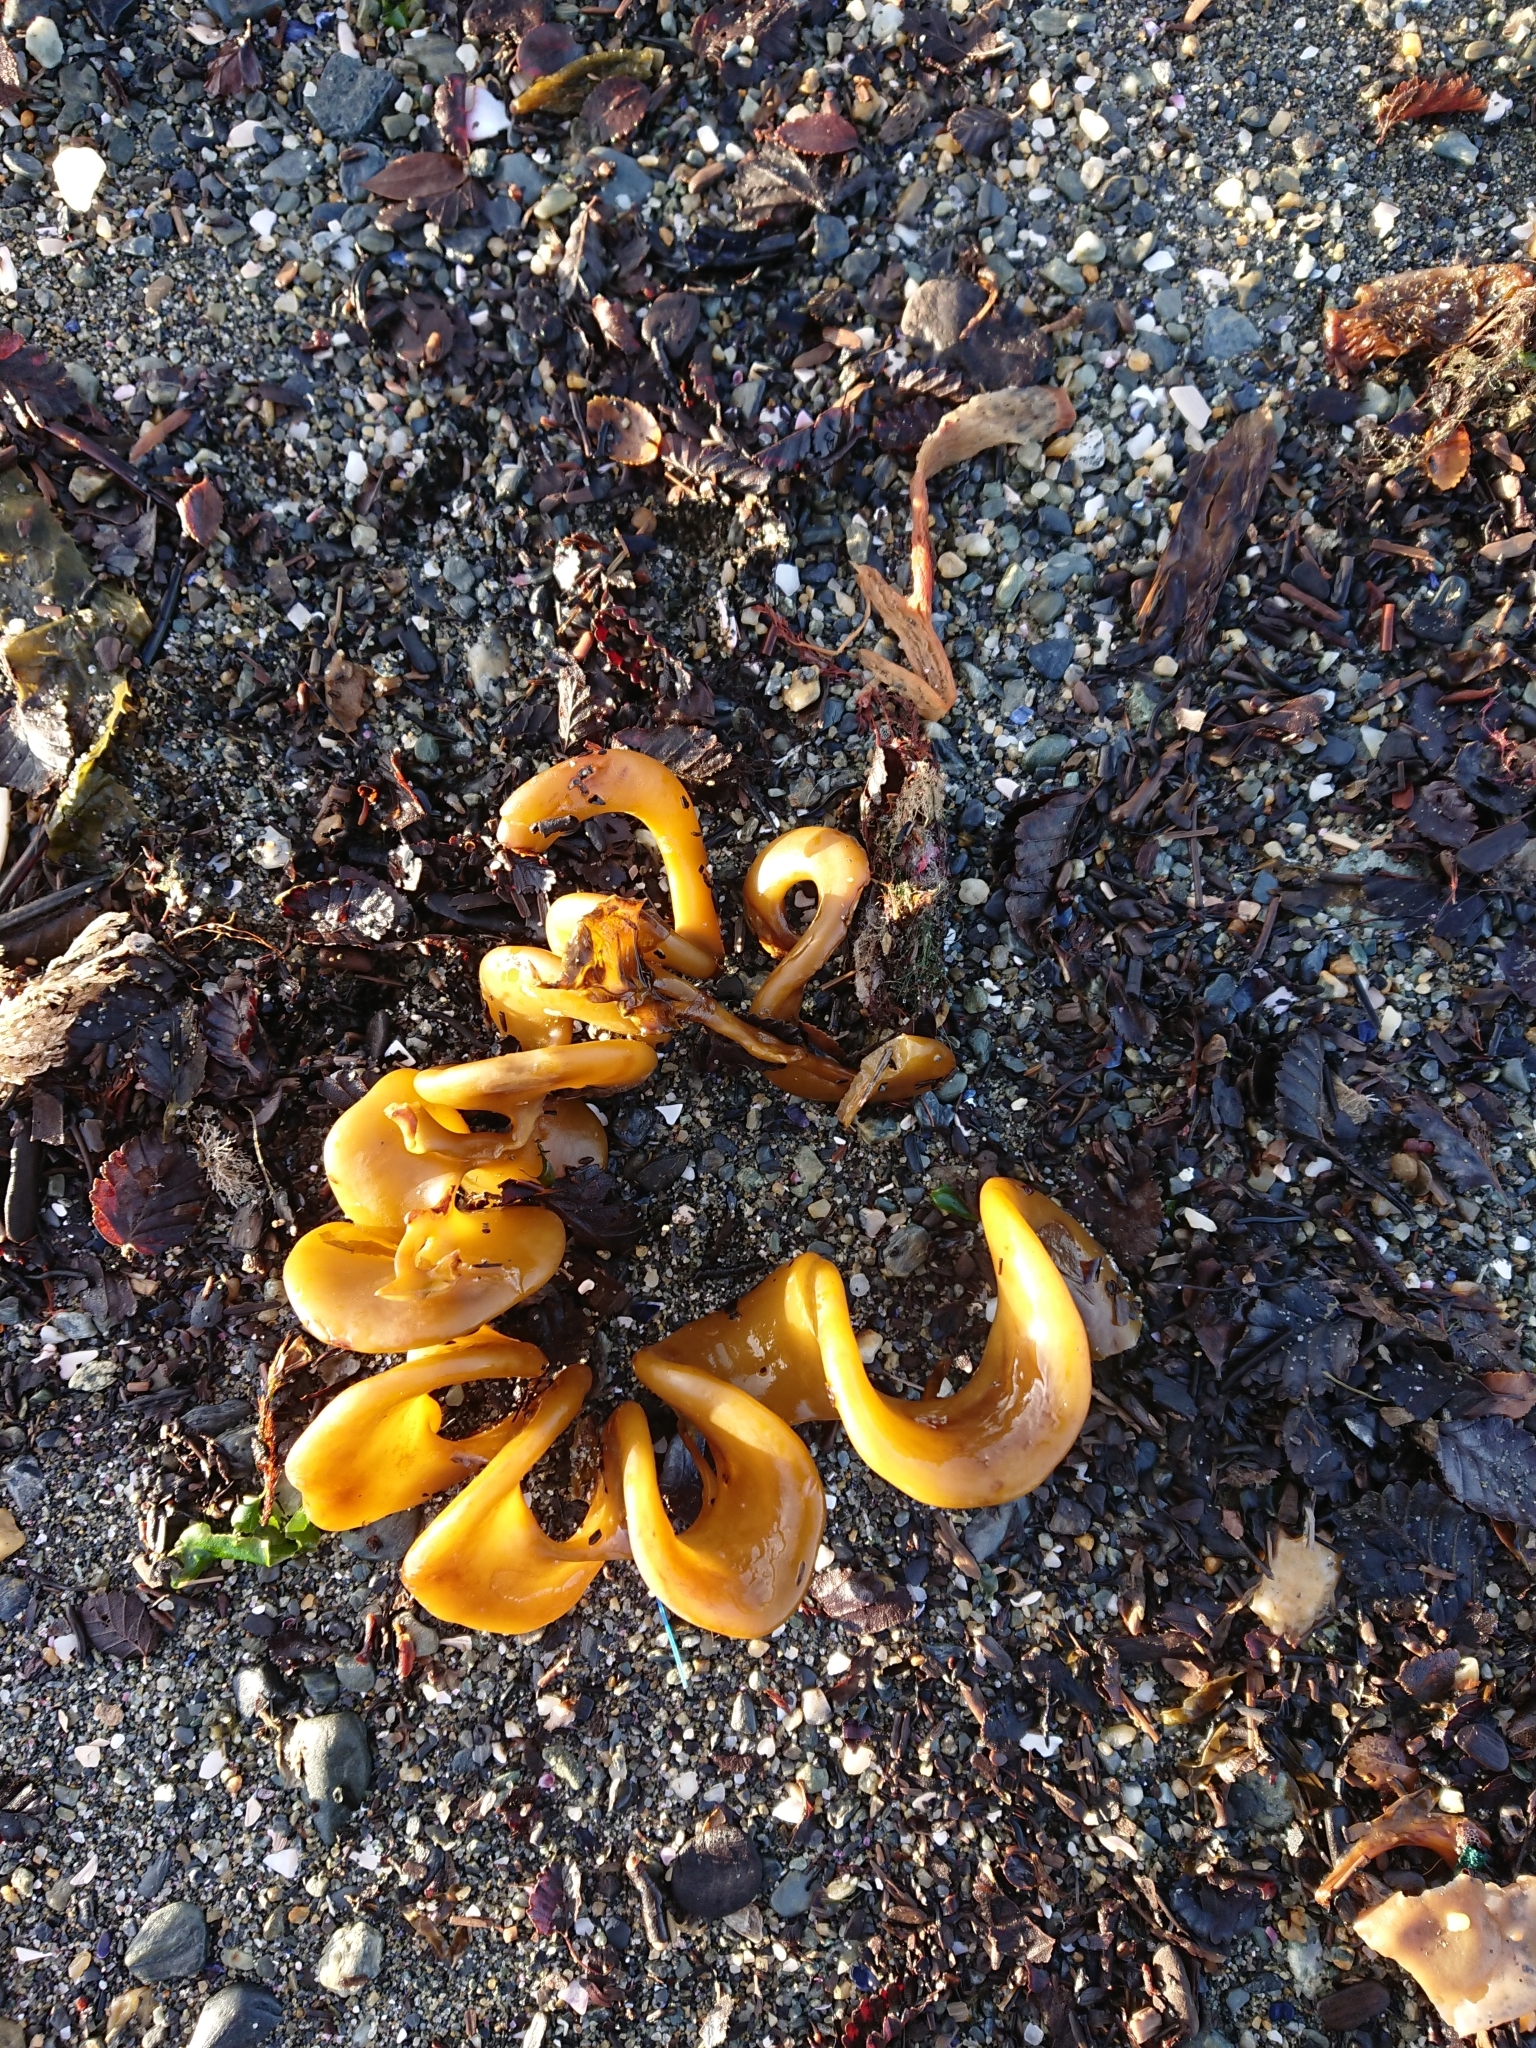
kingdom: Chromista
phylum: Ochrophyta
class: Phaeophyceae
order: Laminariales
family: Laminariaceae
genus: Macrocystis
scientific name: Macrocystis pyrifera
